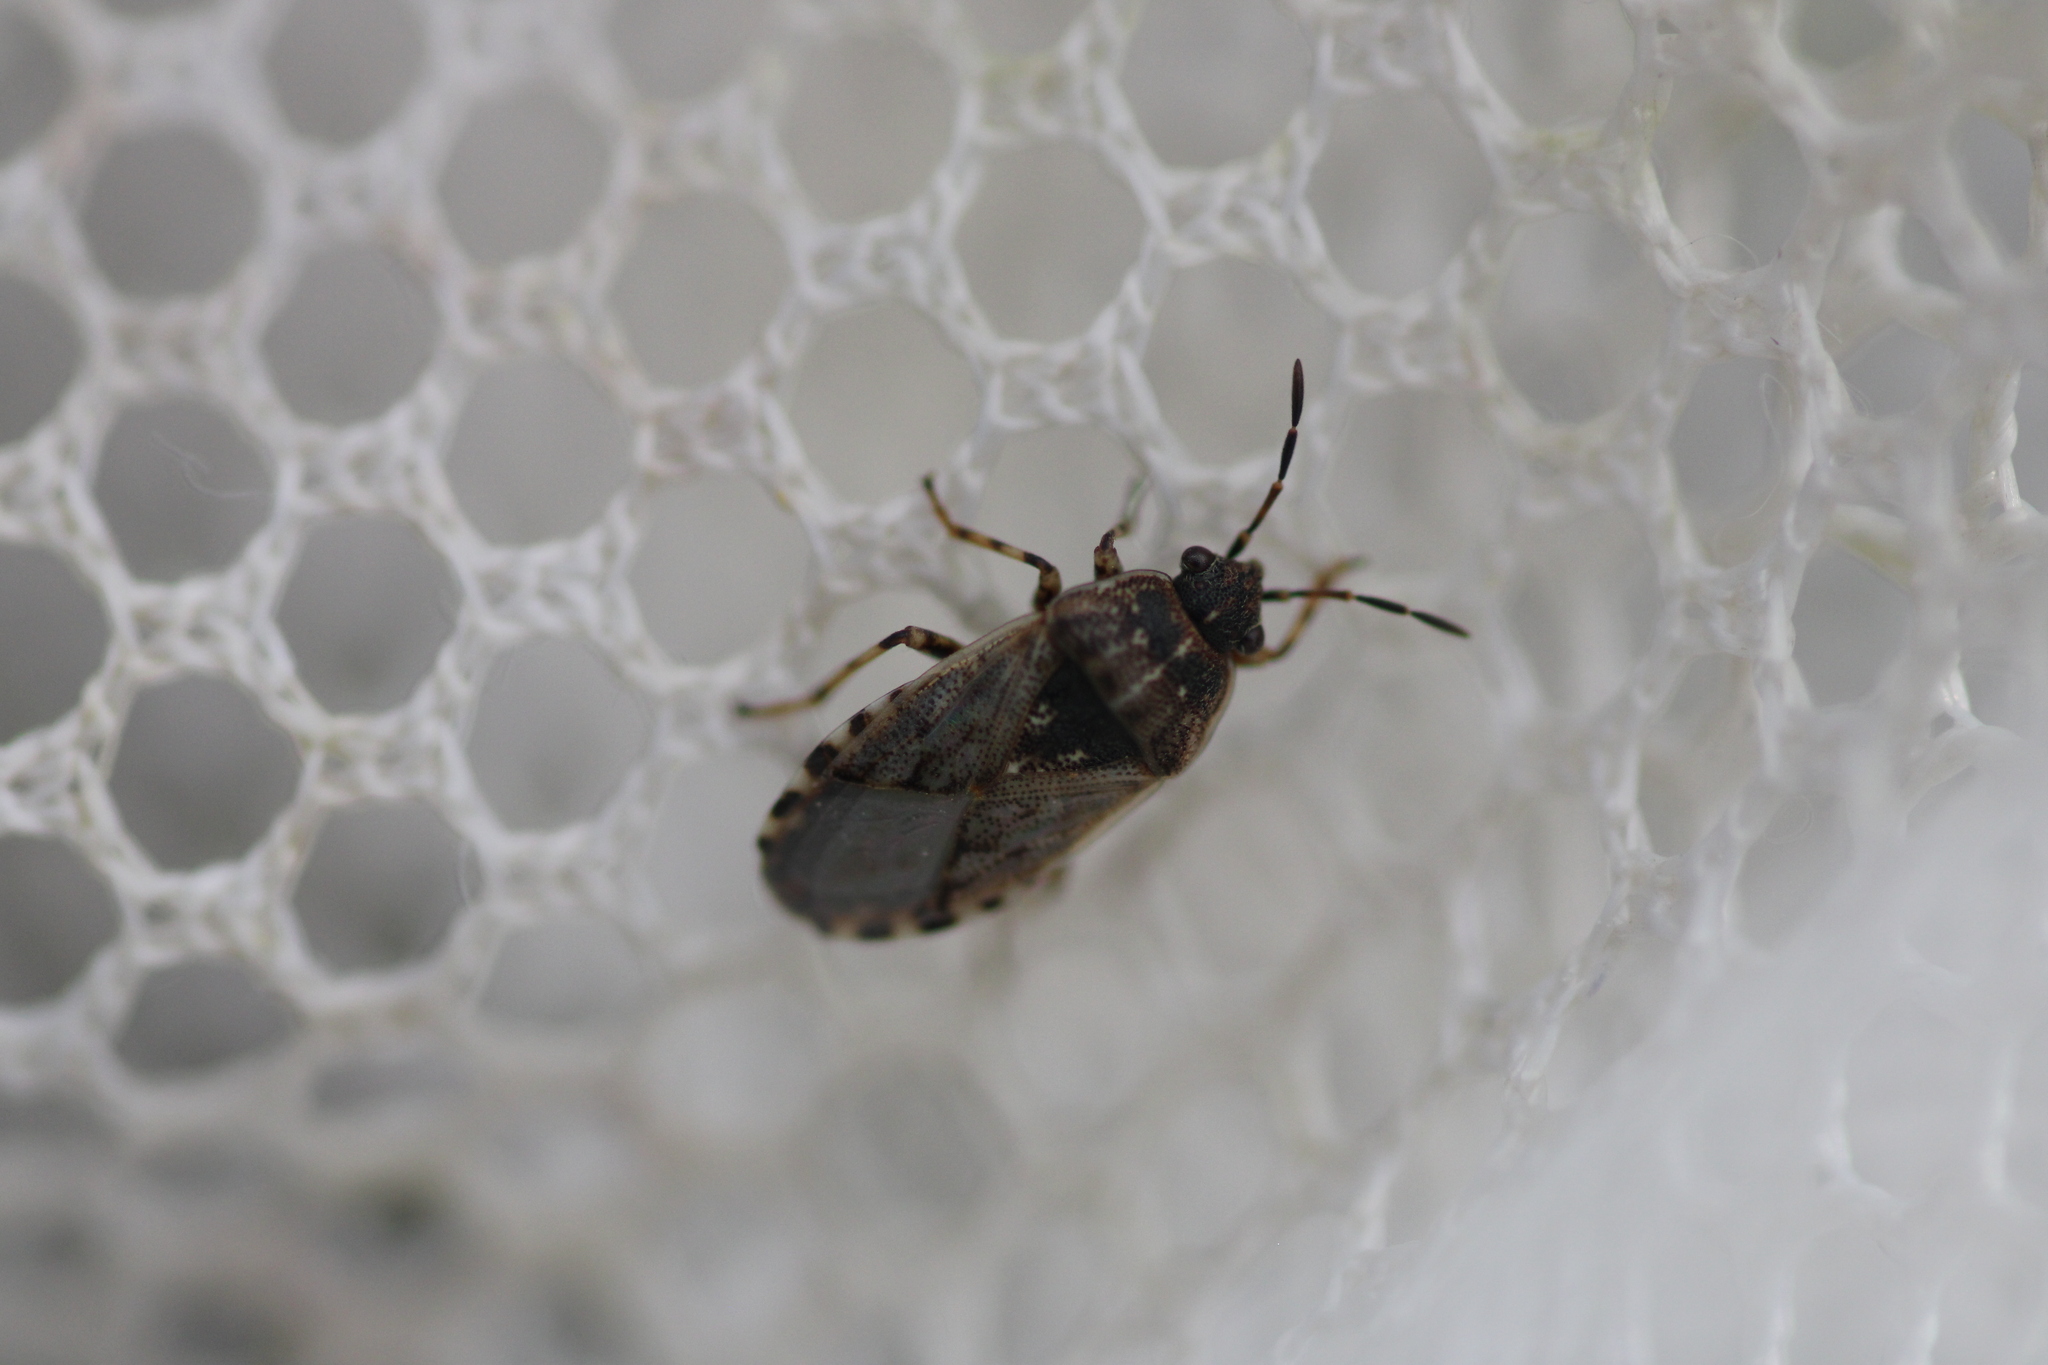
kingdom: Animalia
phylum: Arthropoda
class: Insecta
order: Hemiptera
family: Heterogastridae
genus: Platyplax
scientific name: Platyplax salviae
